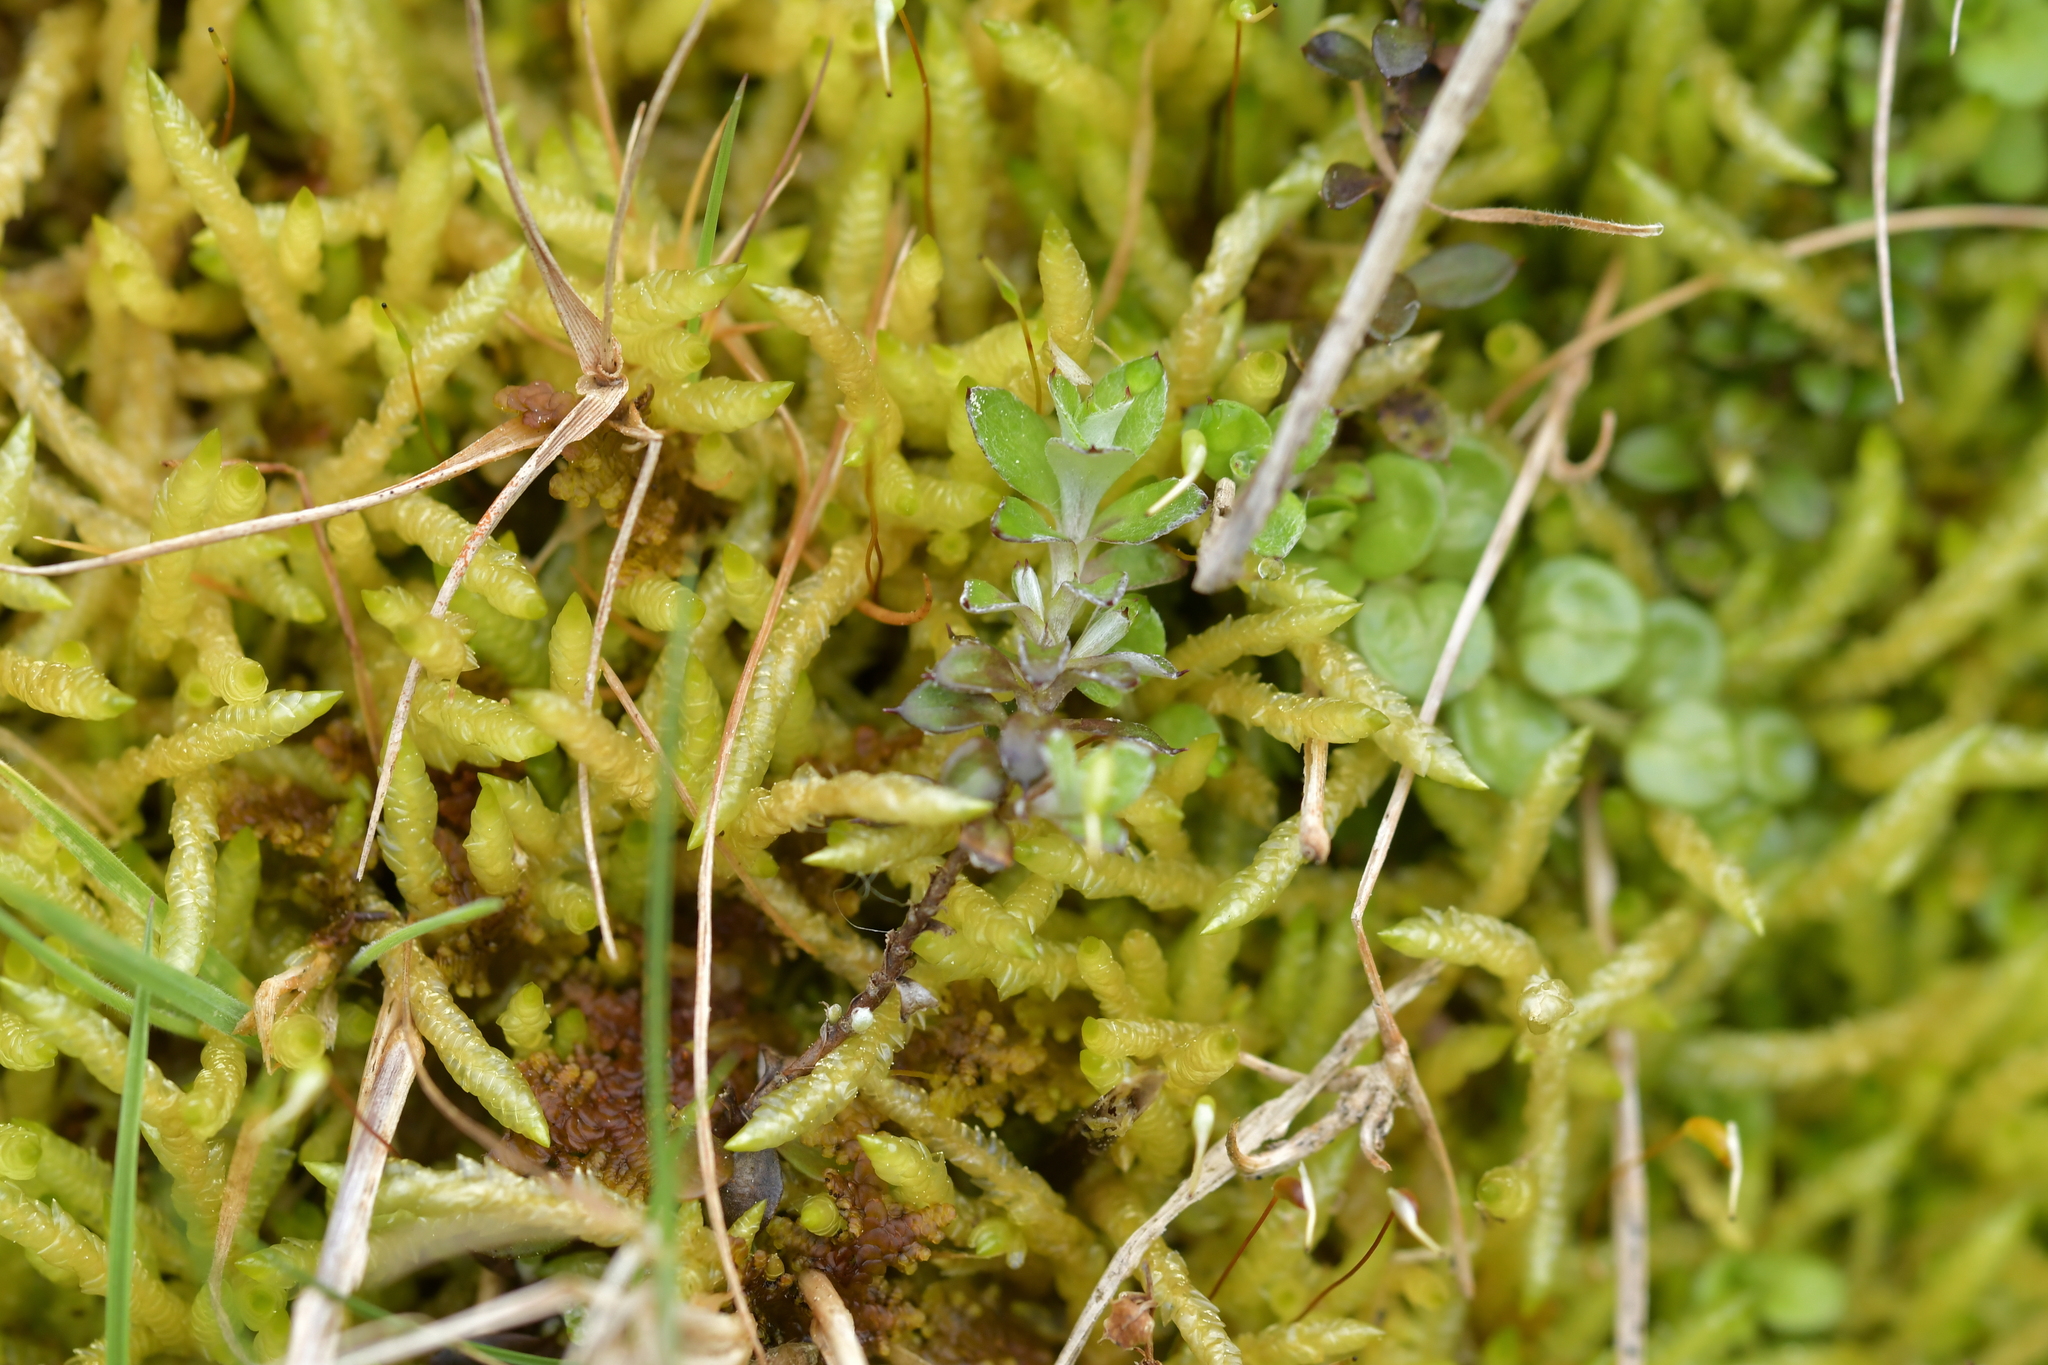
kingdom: Plantae
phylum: Tracheophyta
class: Magnoliopsida
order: Asterales
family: Asteraceae
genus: Helichrysum
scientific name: Helichrysum filicaule
